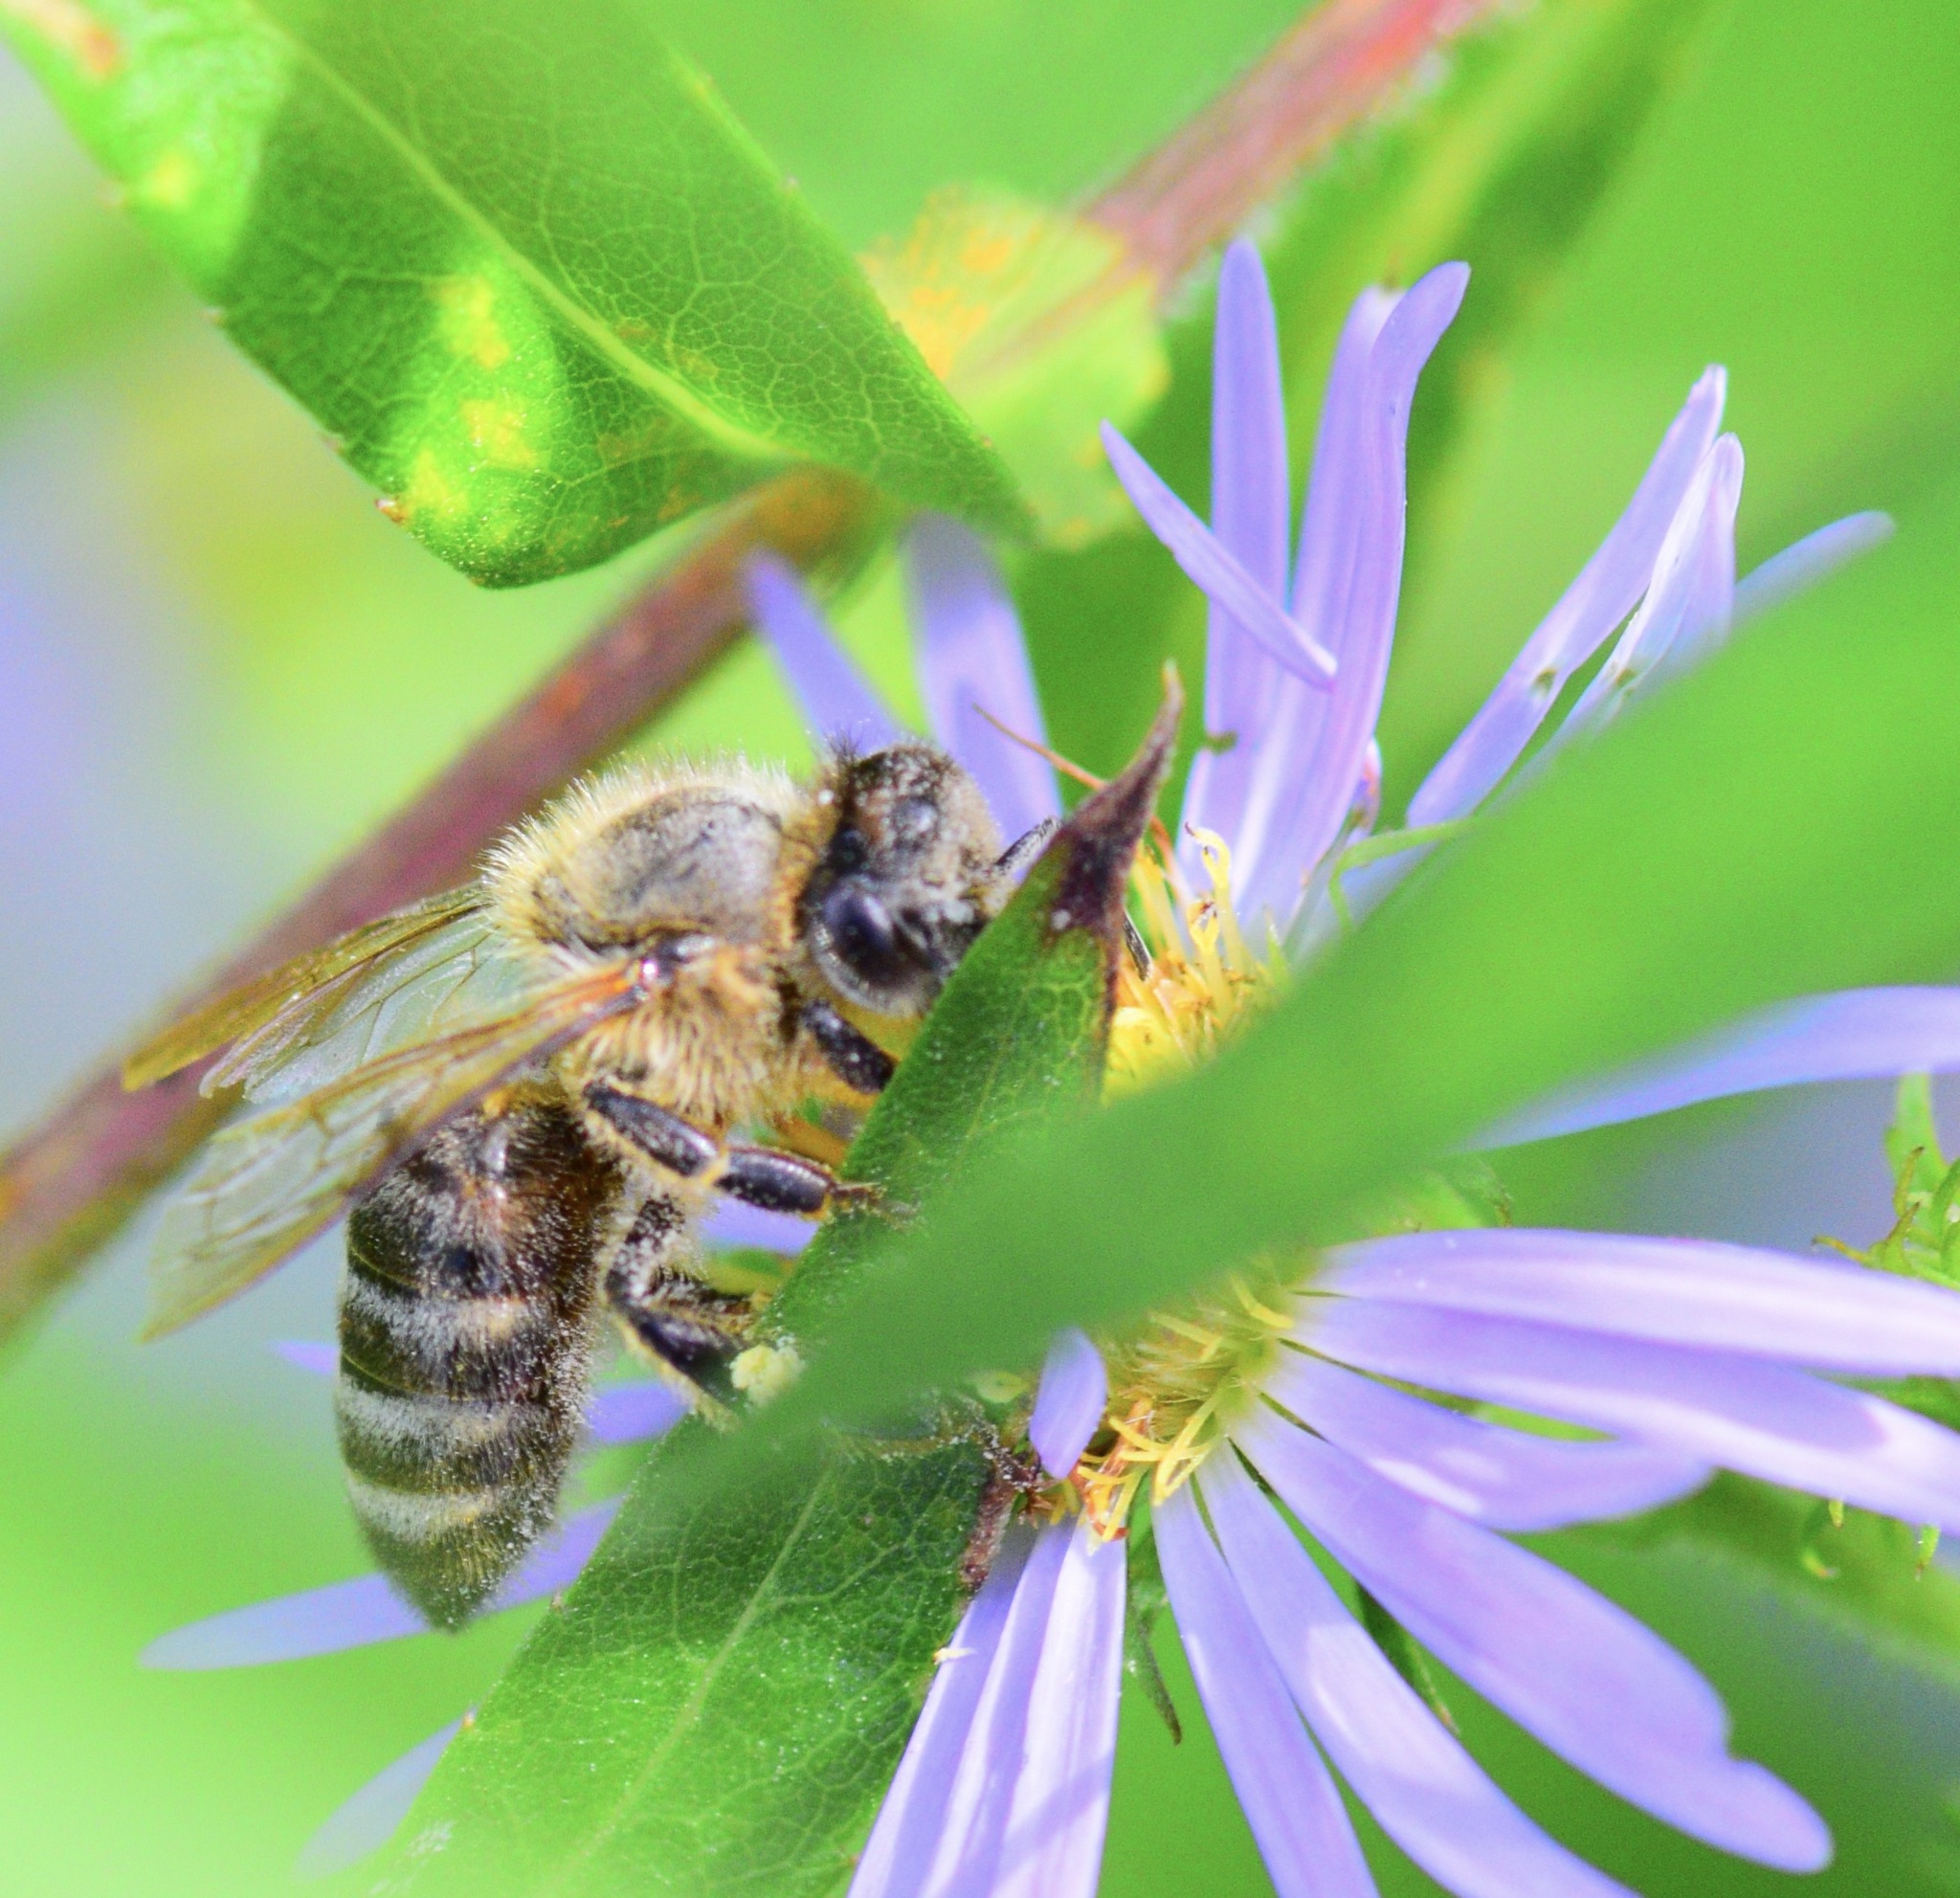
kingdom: Animalia
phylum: Arthropoda
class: Insecta
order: Hymenoptera
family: Apidae
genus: Apis
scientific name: Apis mellifera
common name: Honey bee
